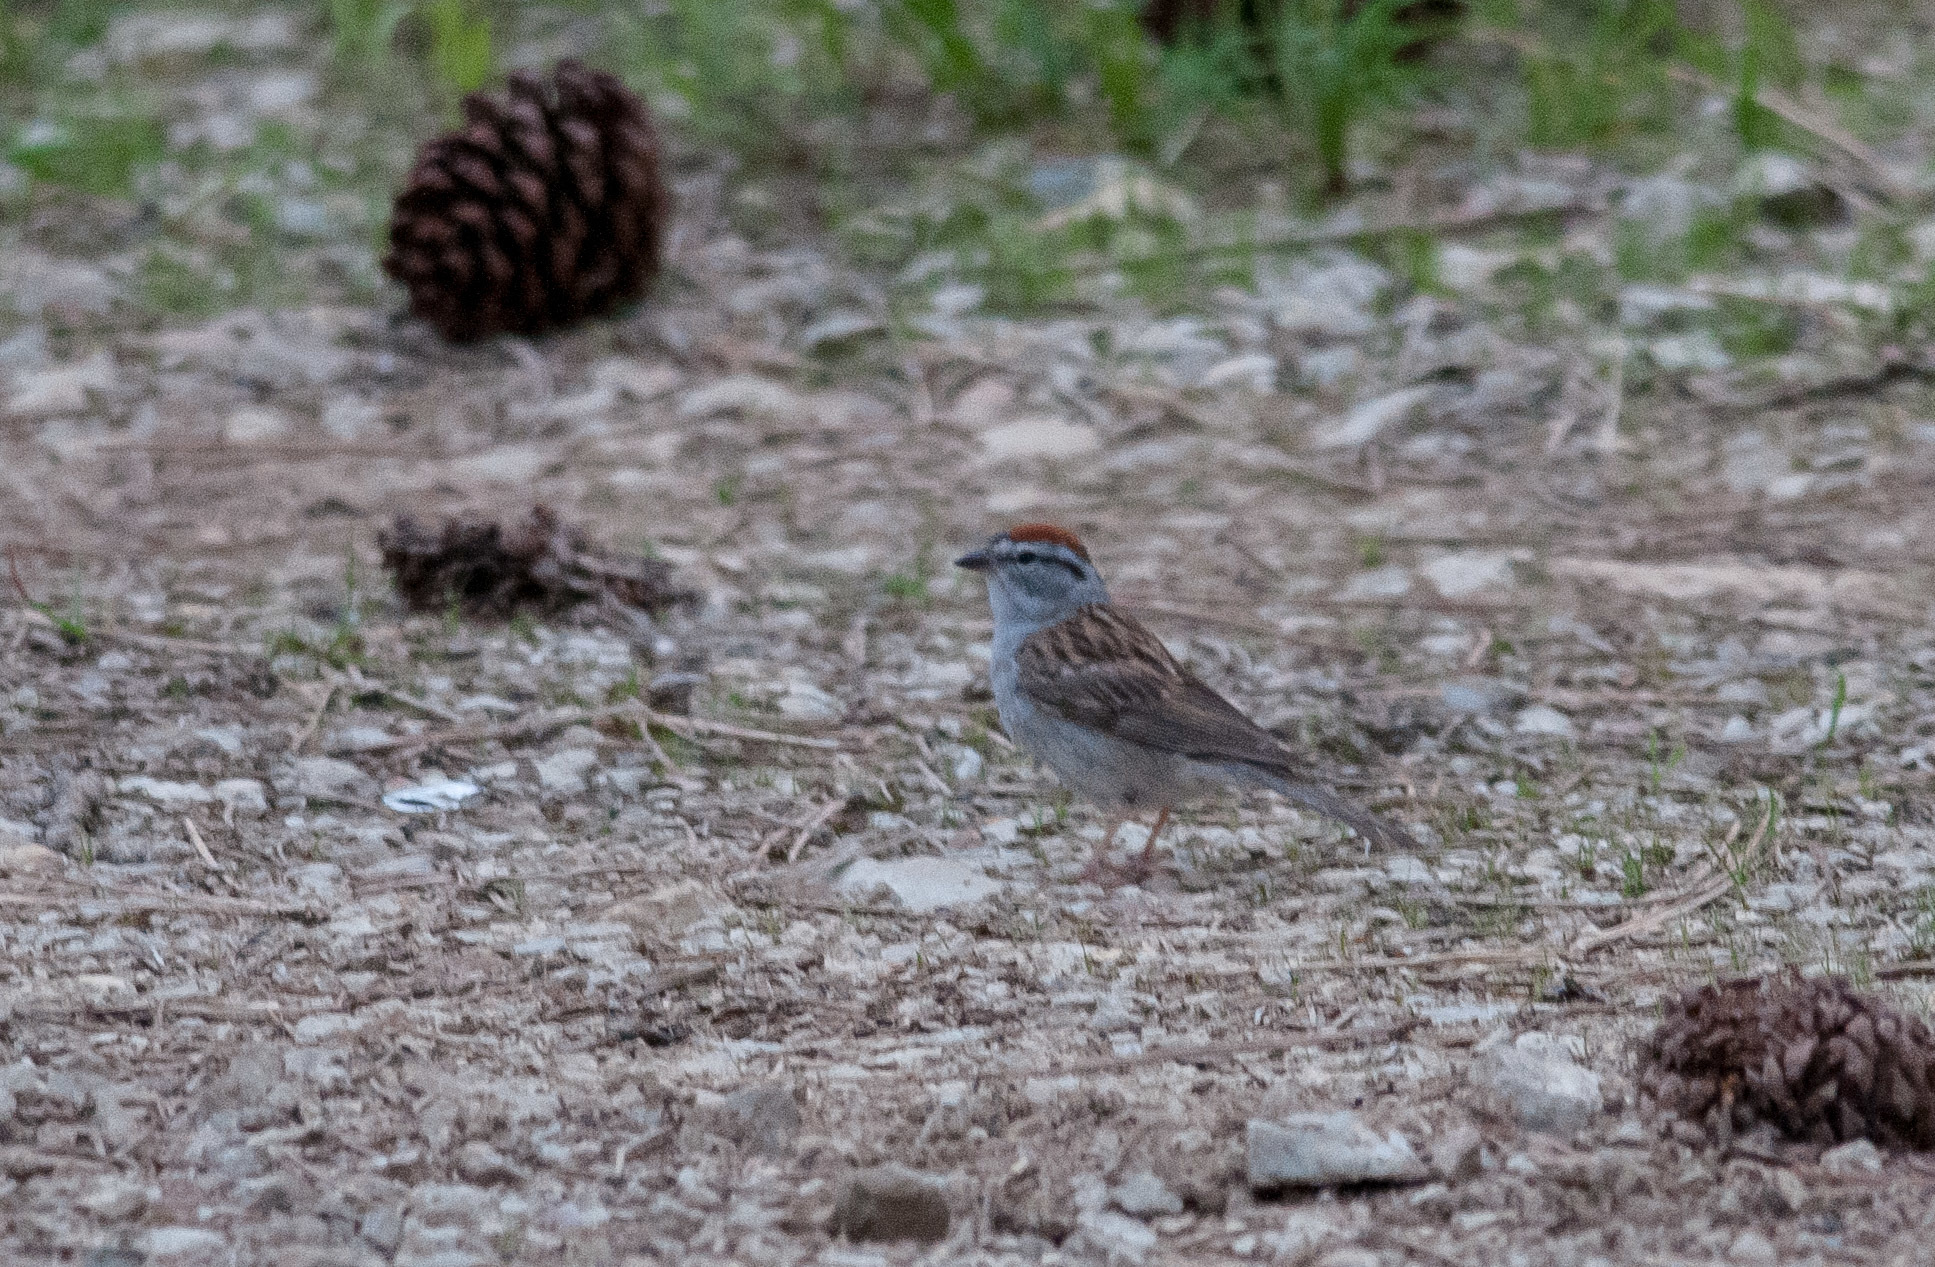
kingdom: Animalia
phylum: Chordata
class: Aves
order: Passeriformes
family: Passerellidae
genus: Spizella
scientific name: Spizella passerina
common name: Chipping sparrow
